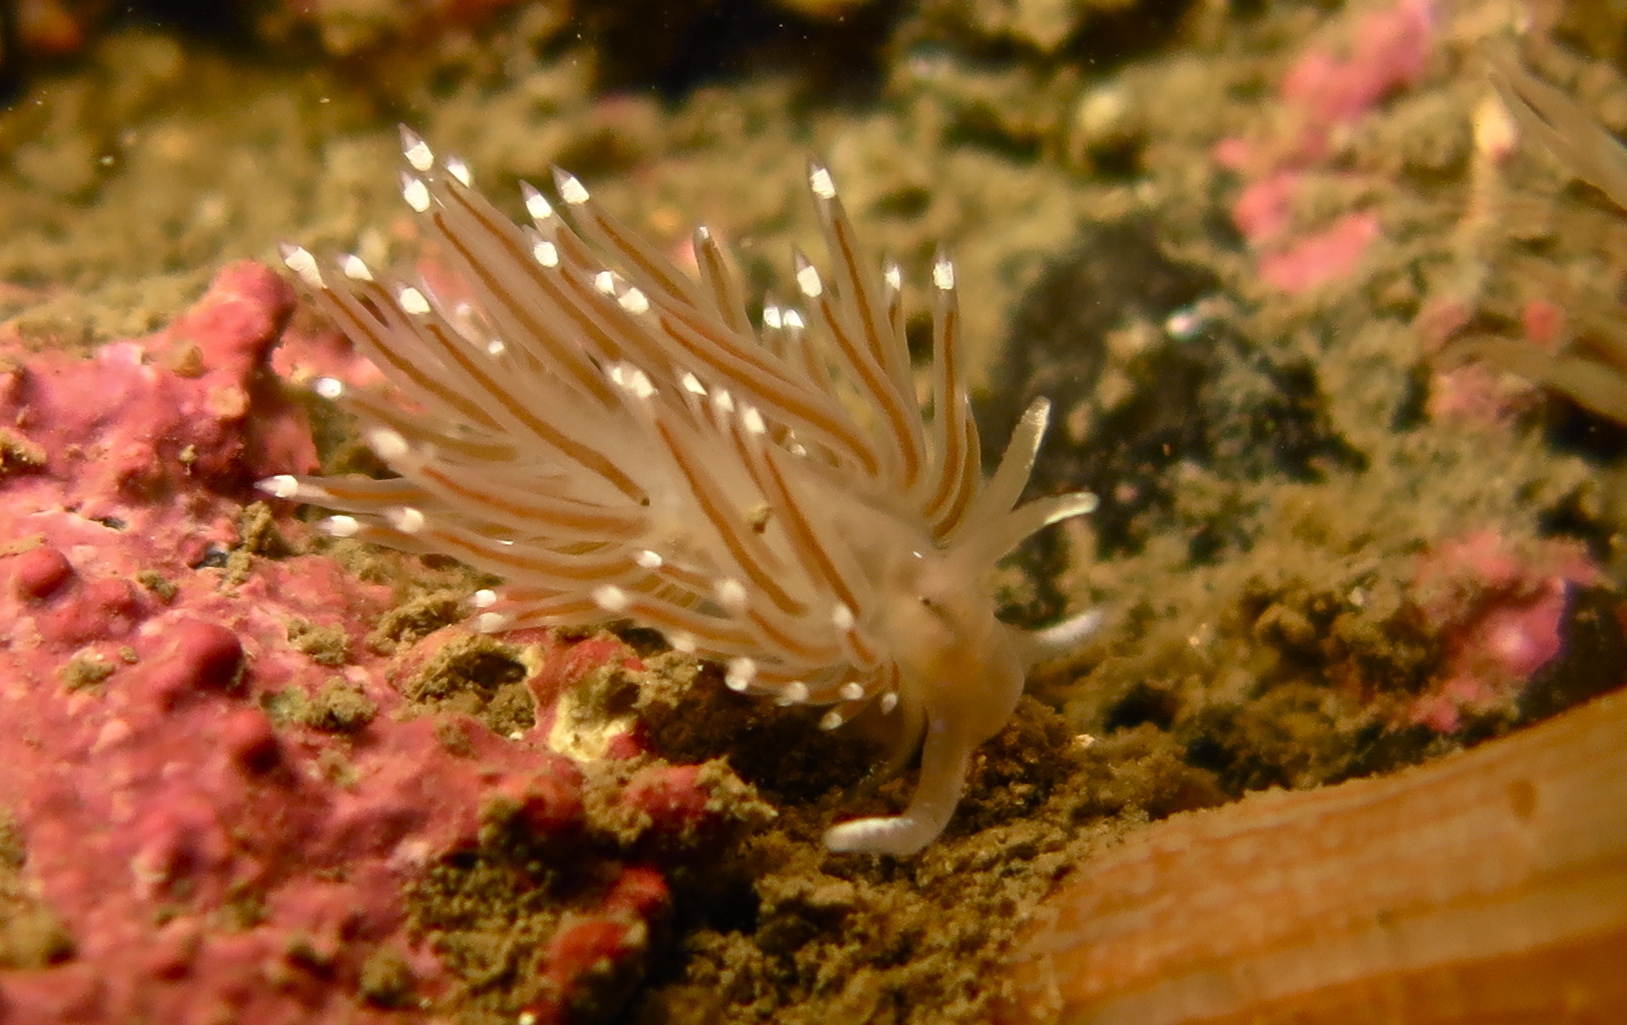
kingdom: Animalia
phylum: Mollusca
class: Gastropoda
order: Nudibranchia
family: Coryphellidae
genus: Coryphella
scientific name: Coryphella verrucosa
